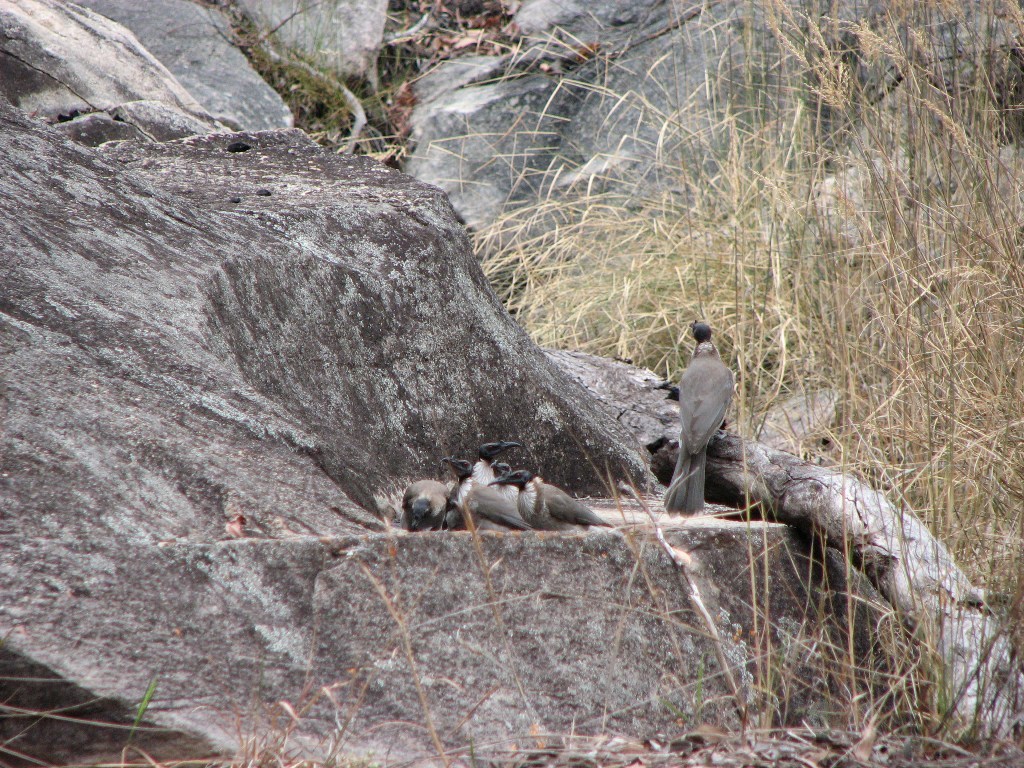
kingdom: Animalia
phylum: Chordata
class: Aves
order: Passeriformes
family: Meliphagidae
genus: Philemon
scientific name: Philemon corniculatus
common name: Noisy friarbird
